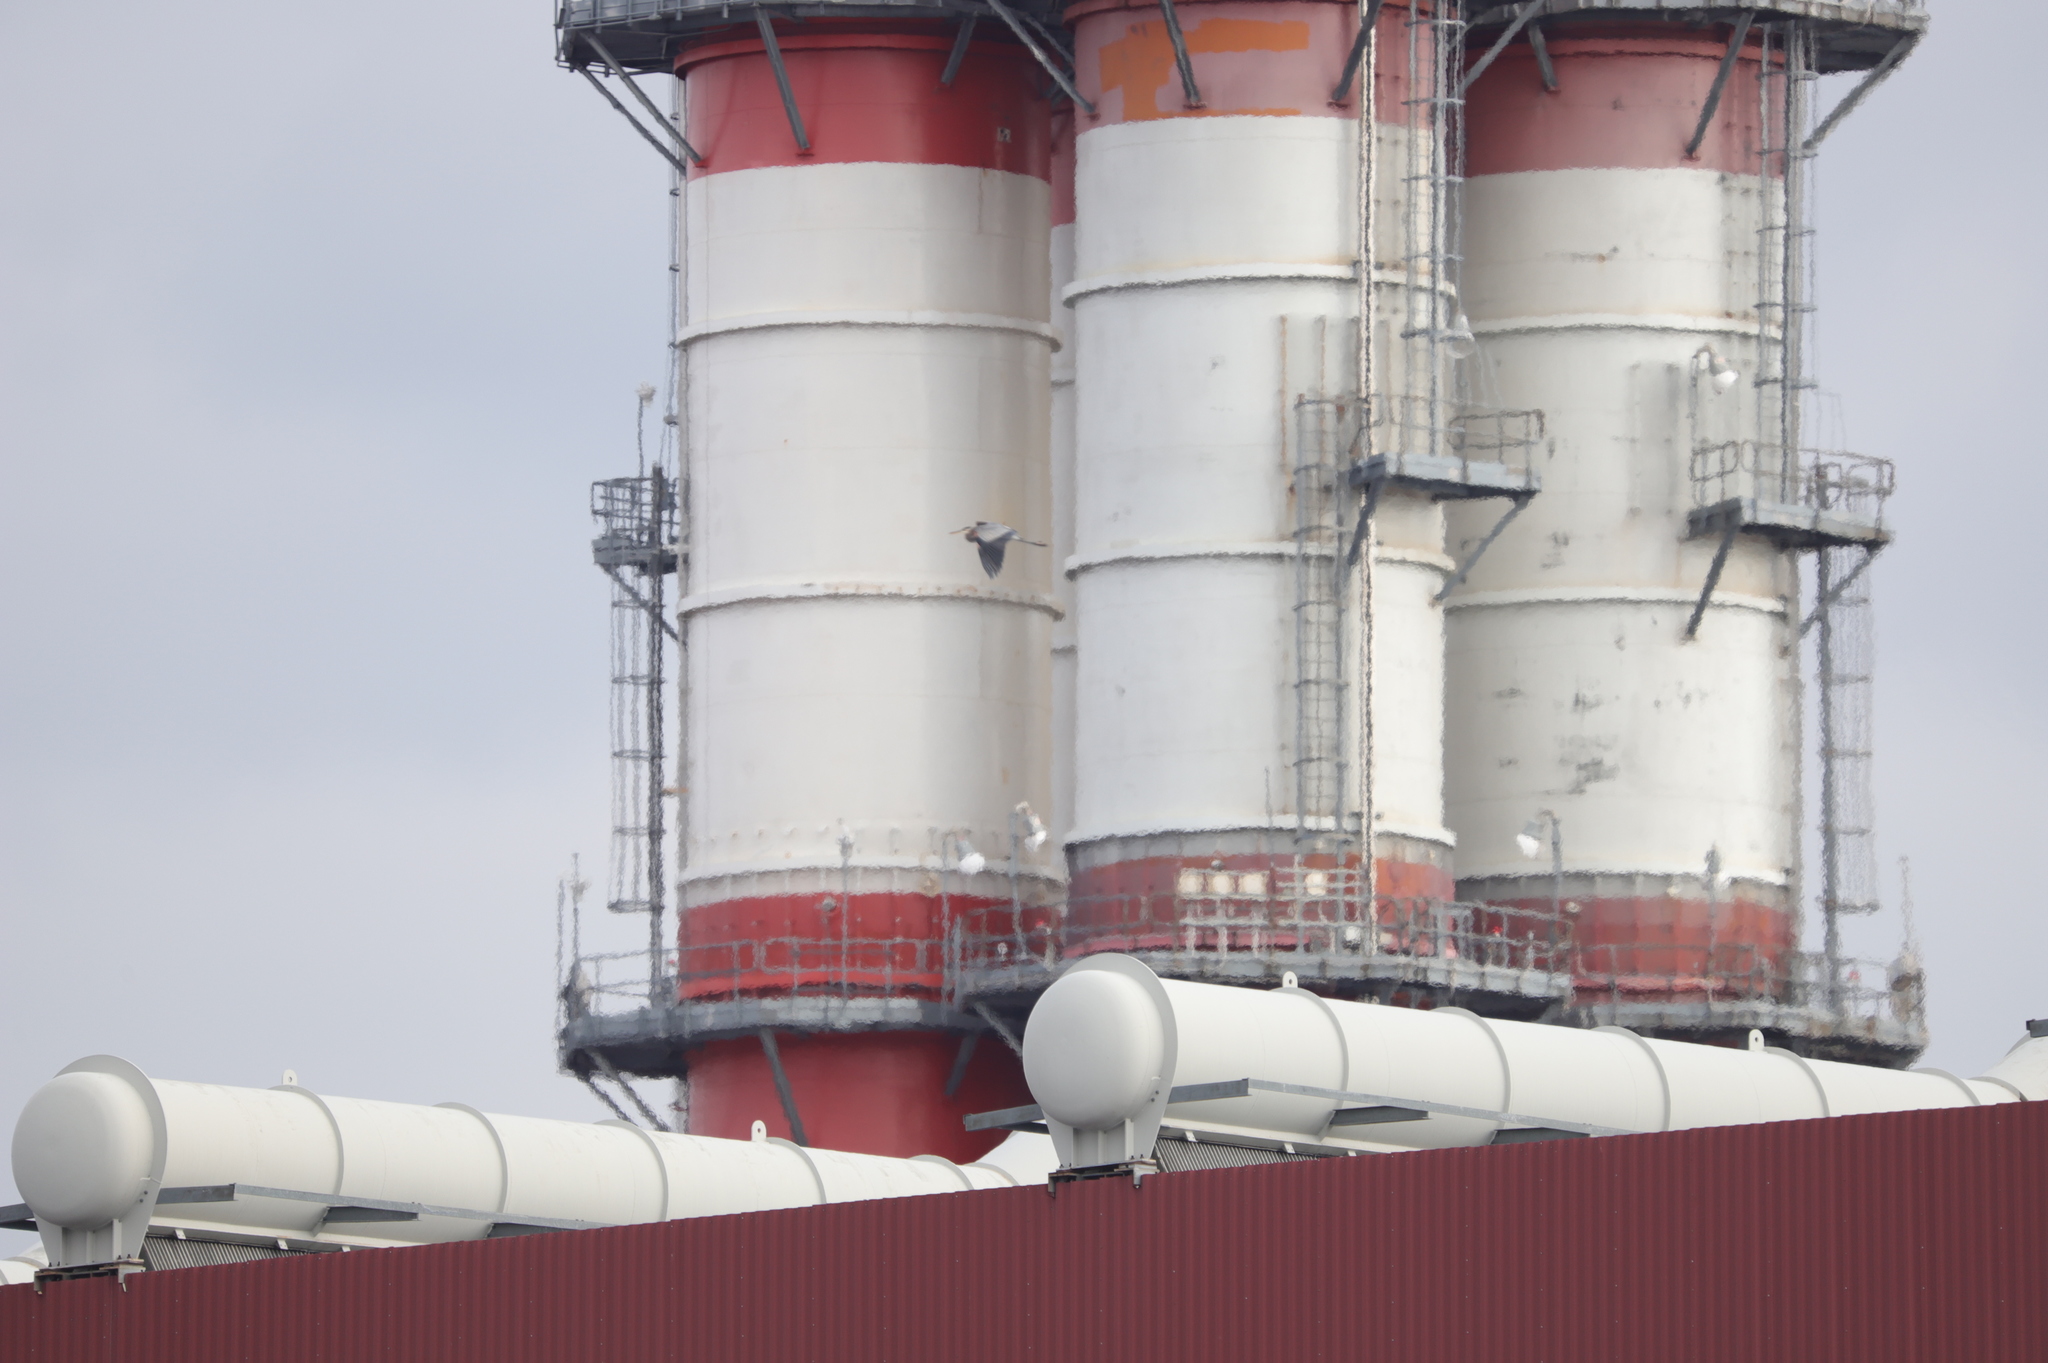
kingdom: Animalia
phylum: Chordata
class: Aves
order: Pelecaniformes
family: Ardeidae
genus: Ardea
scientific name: Ardea herodias
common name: Great blue heron
